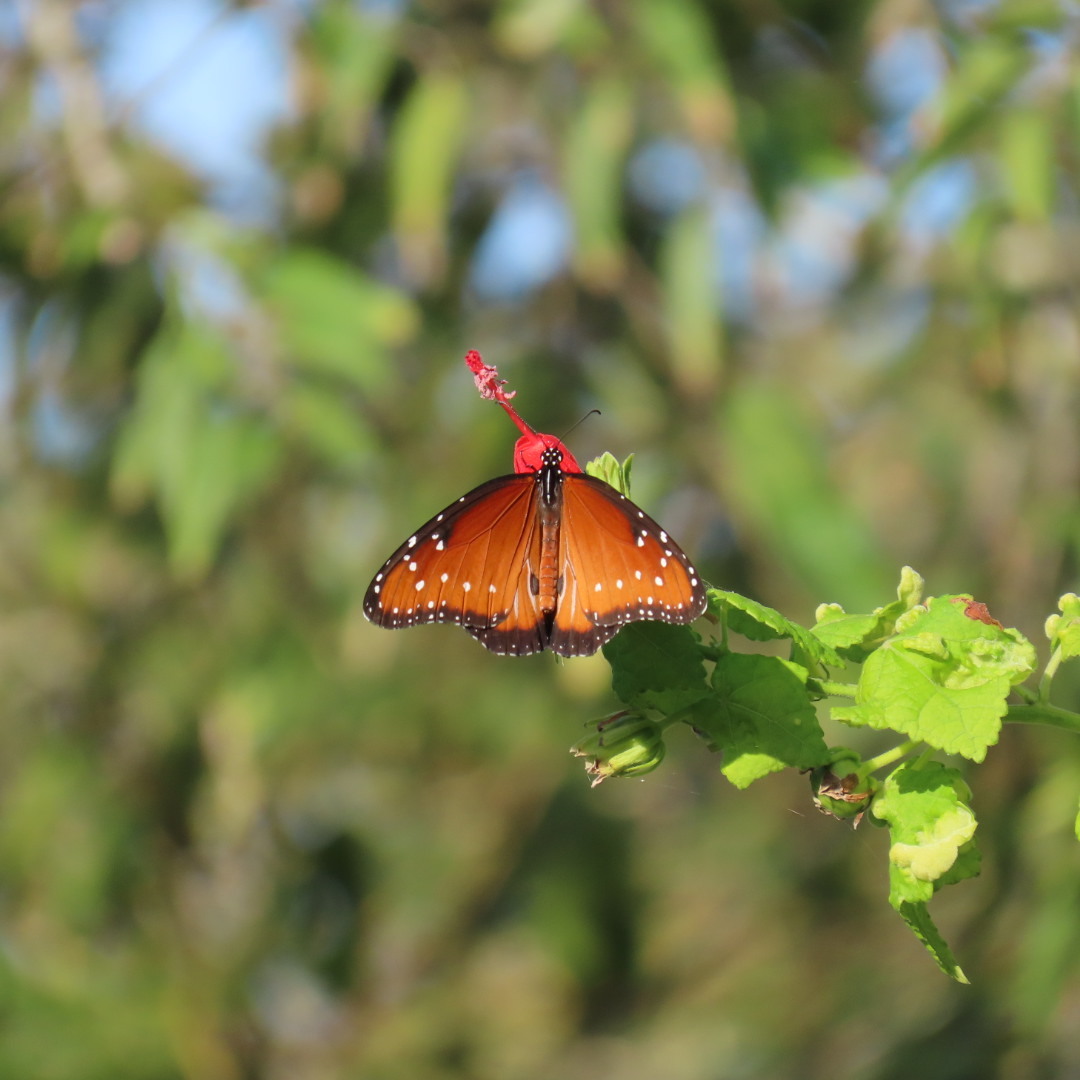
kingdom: Animalia
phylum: Arthropoda
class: Insecta
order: Lepidoptera
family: Nymphalidae
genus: Danaus
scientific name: Danaus gilippus
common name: Queen
